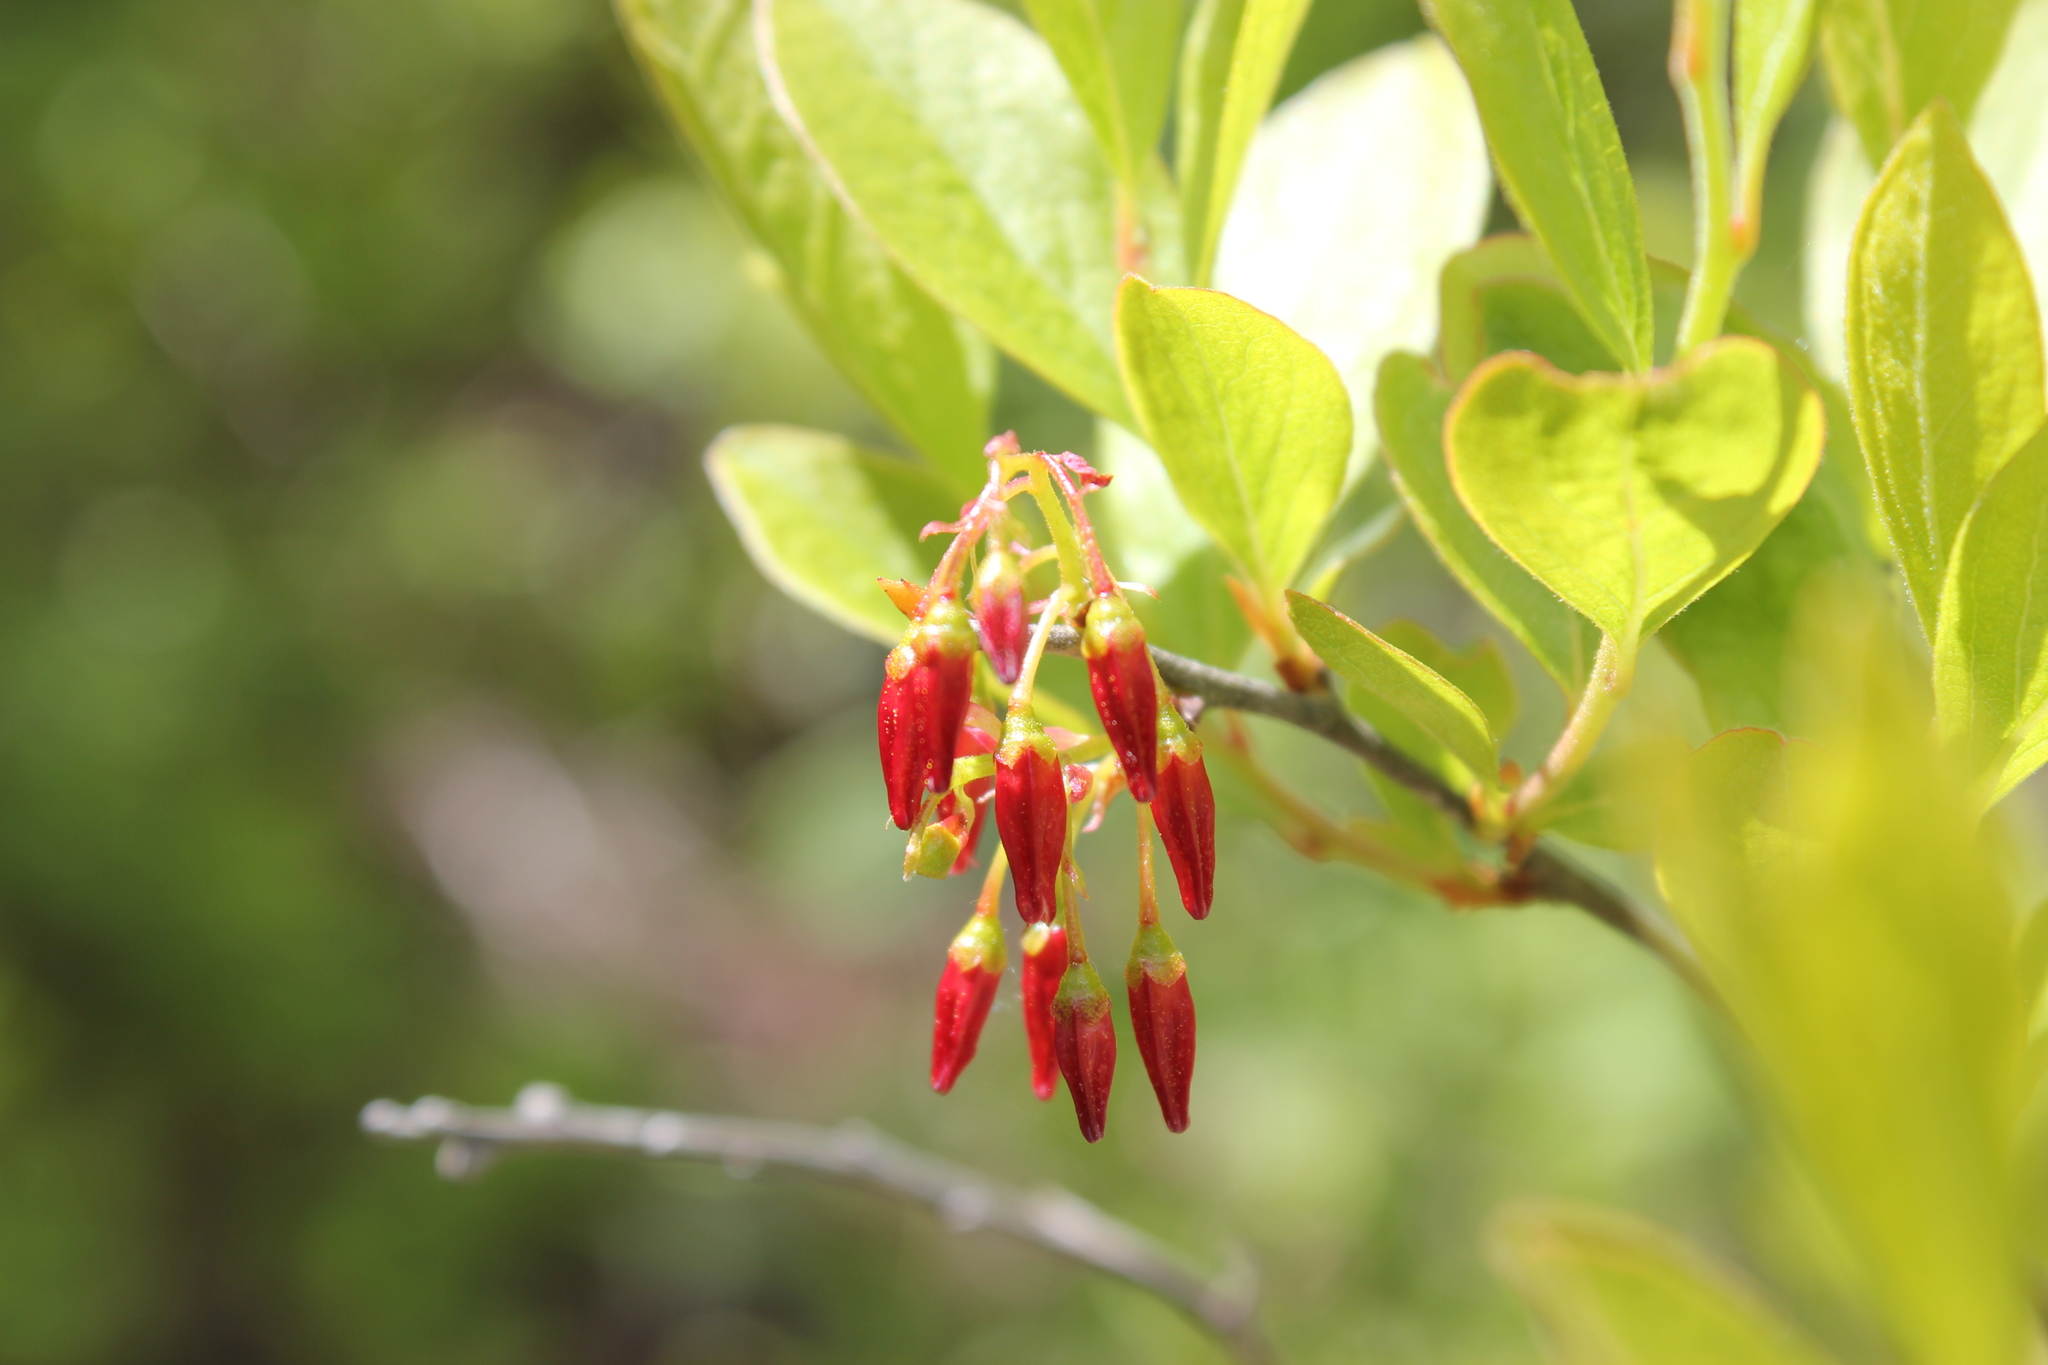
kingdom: Plantae
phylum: Tracheophyta
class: Magnoliopsida
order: Ericales
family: Ericaceae
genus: Gaylussacia
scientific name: Gaylussacia baccata
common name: Black huckleberry
